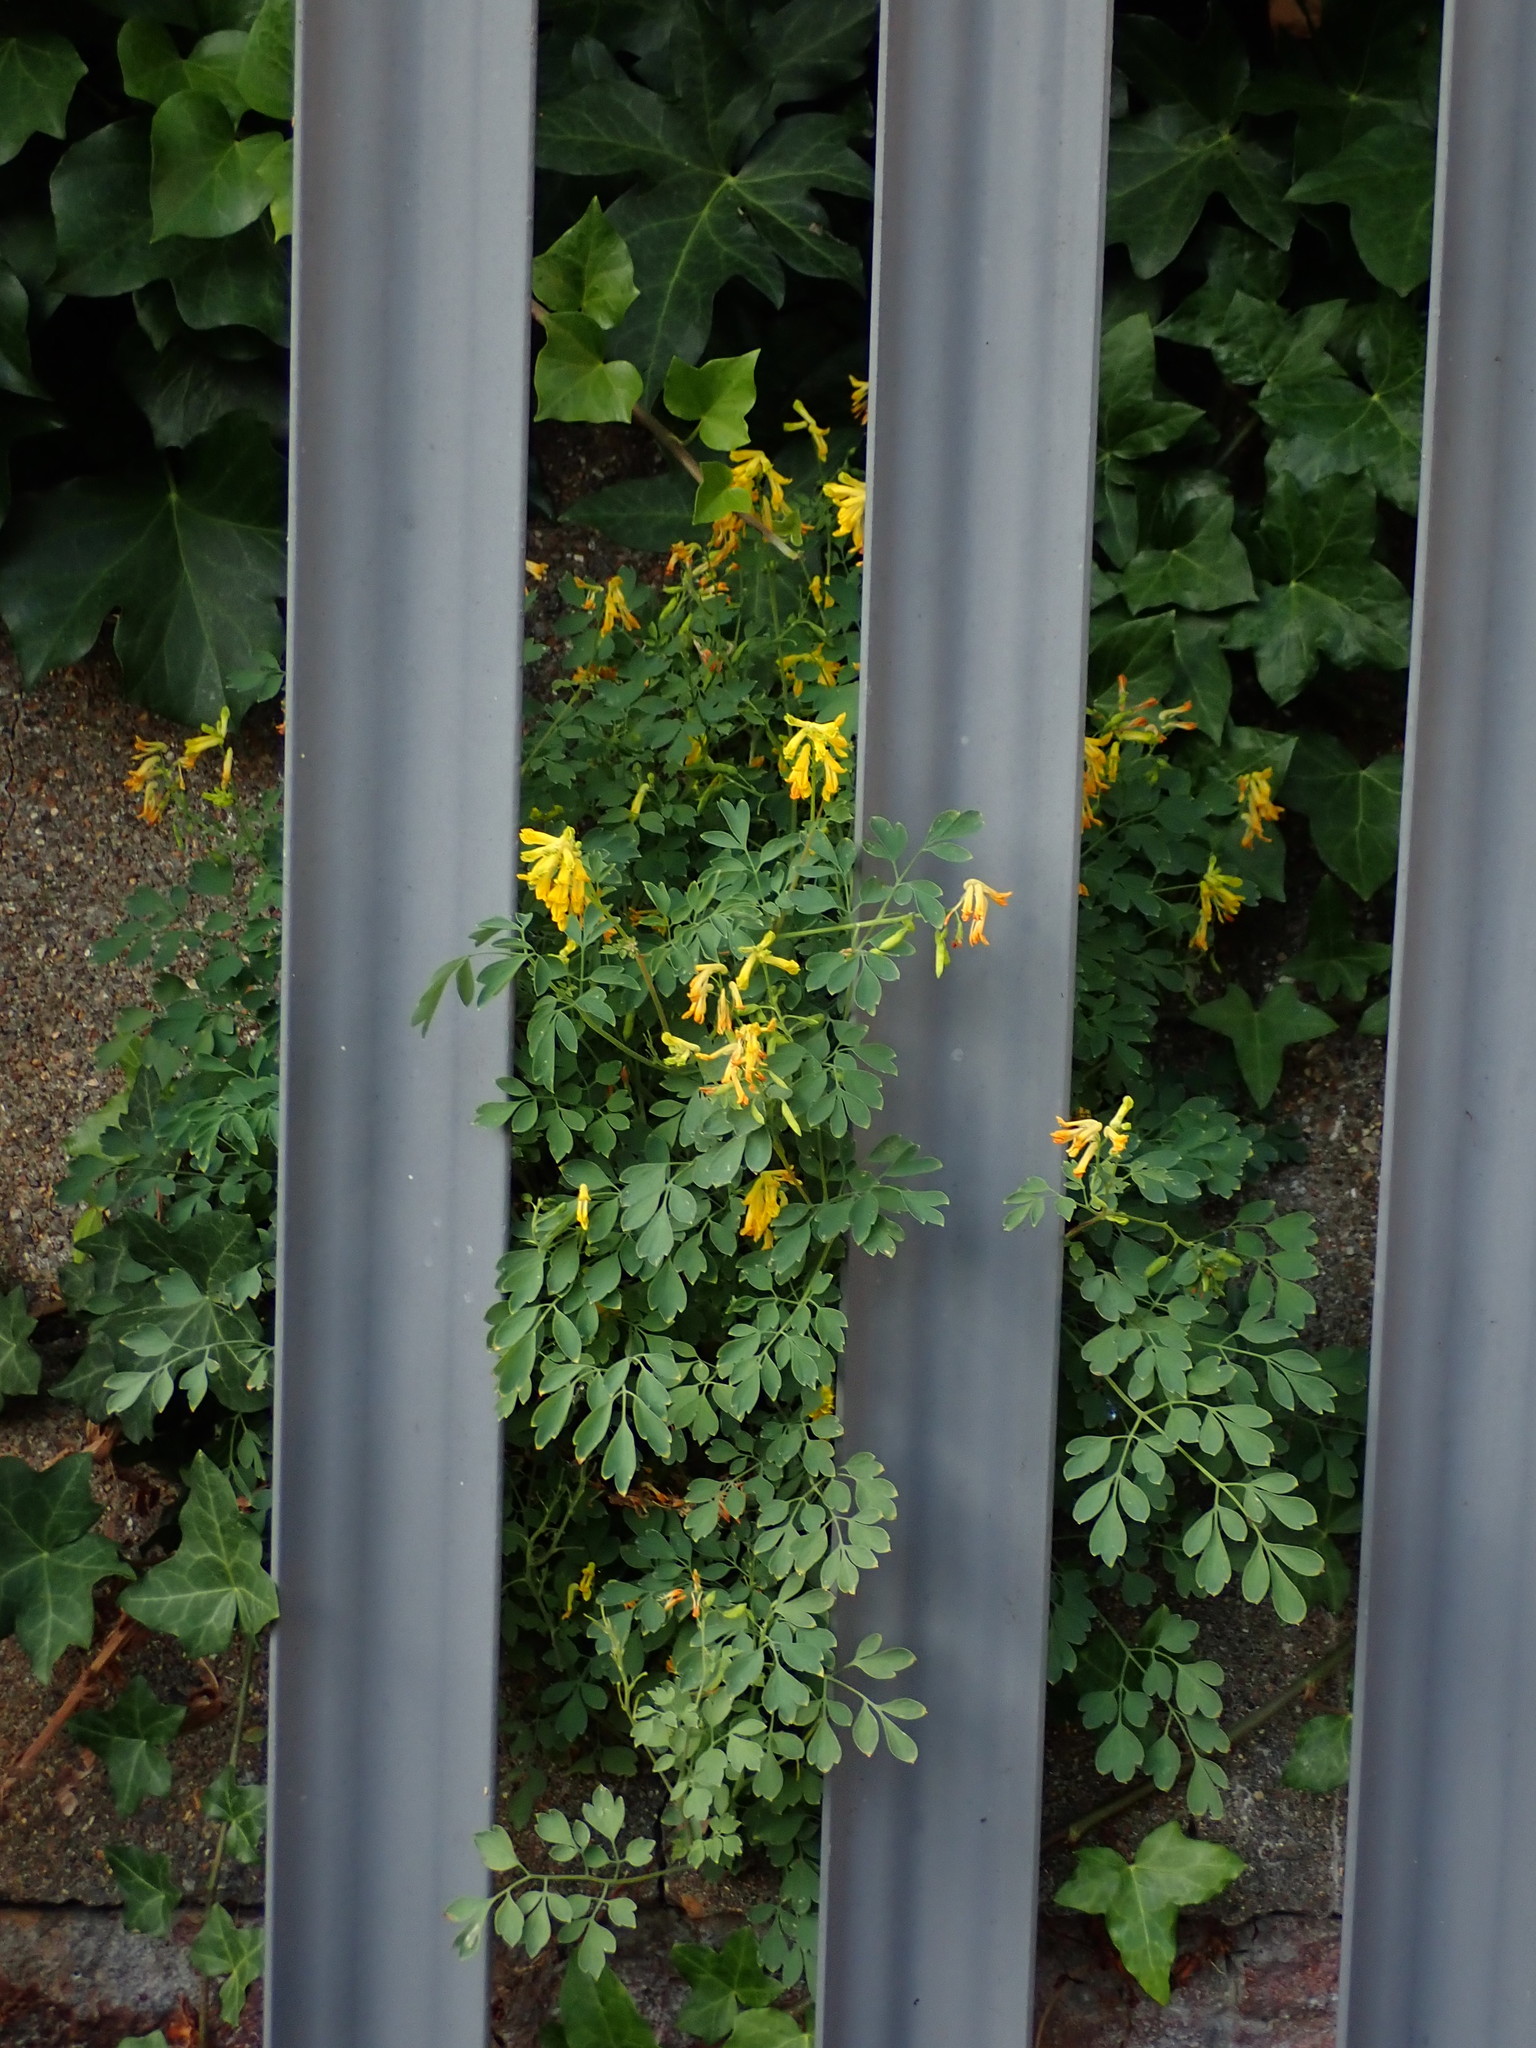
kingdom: Plantae
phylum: Tracheophyta
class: Magnoliopsida
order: Ranunculales
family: Papaveraceae
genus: Pseudofumaria
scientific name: Pseudofumaria lutea
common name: Yellow corydalis
